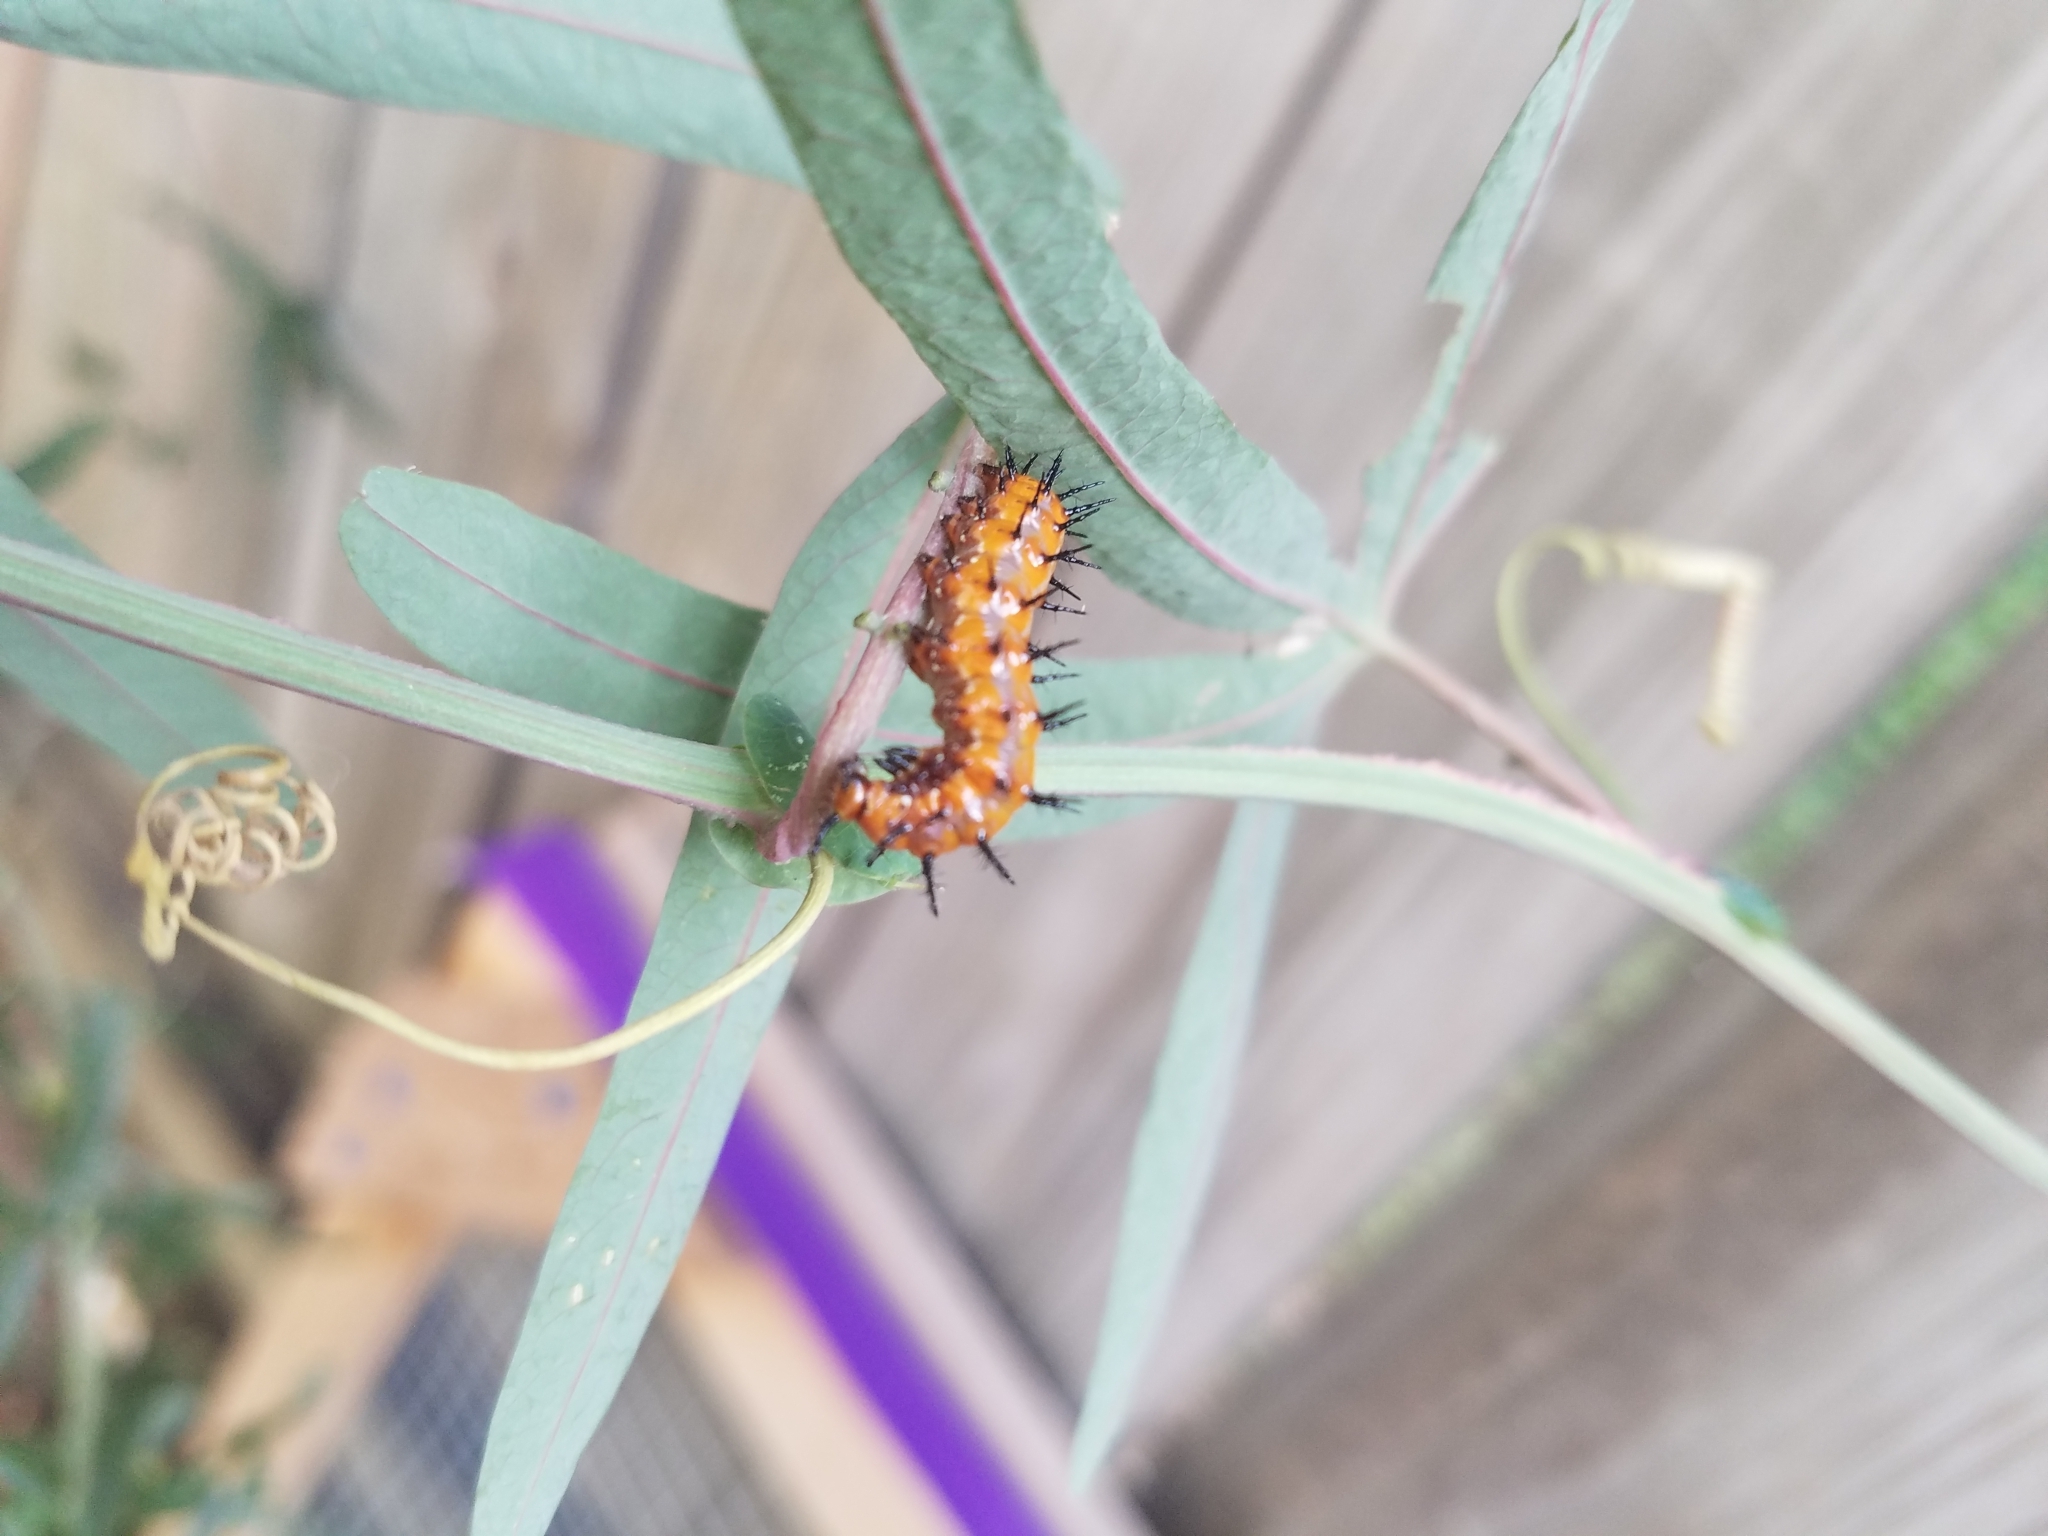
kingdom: Animalia
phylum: Arthropoda
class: Insecta
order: Lepidoptera
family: Nymphalidae
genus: Dione
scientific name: Dione vanillae
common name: Gulf fritillary
